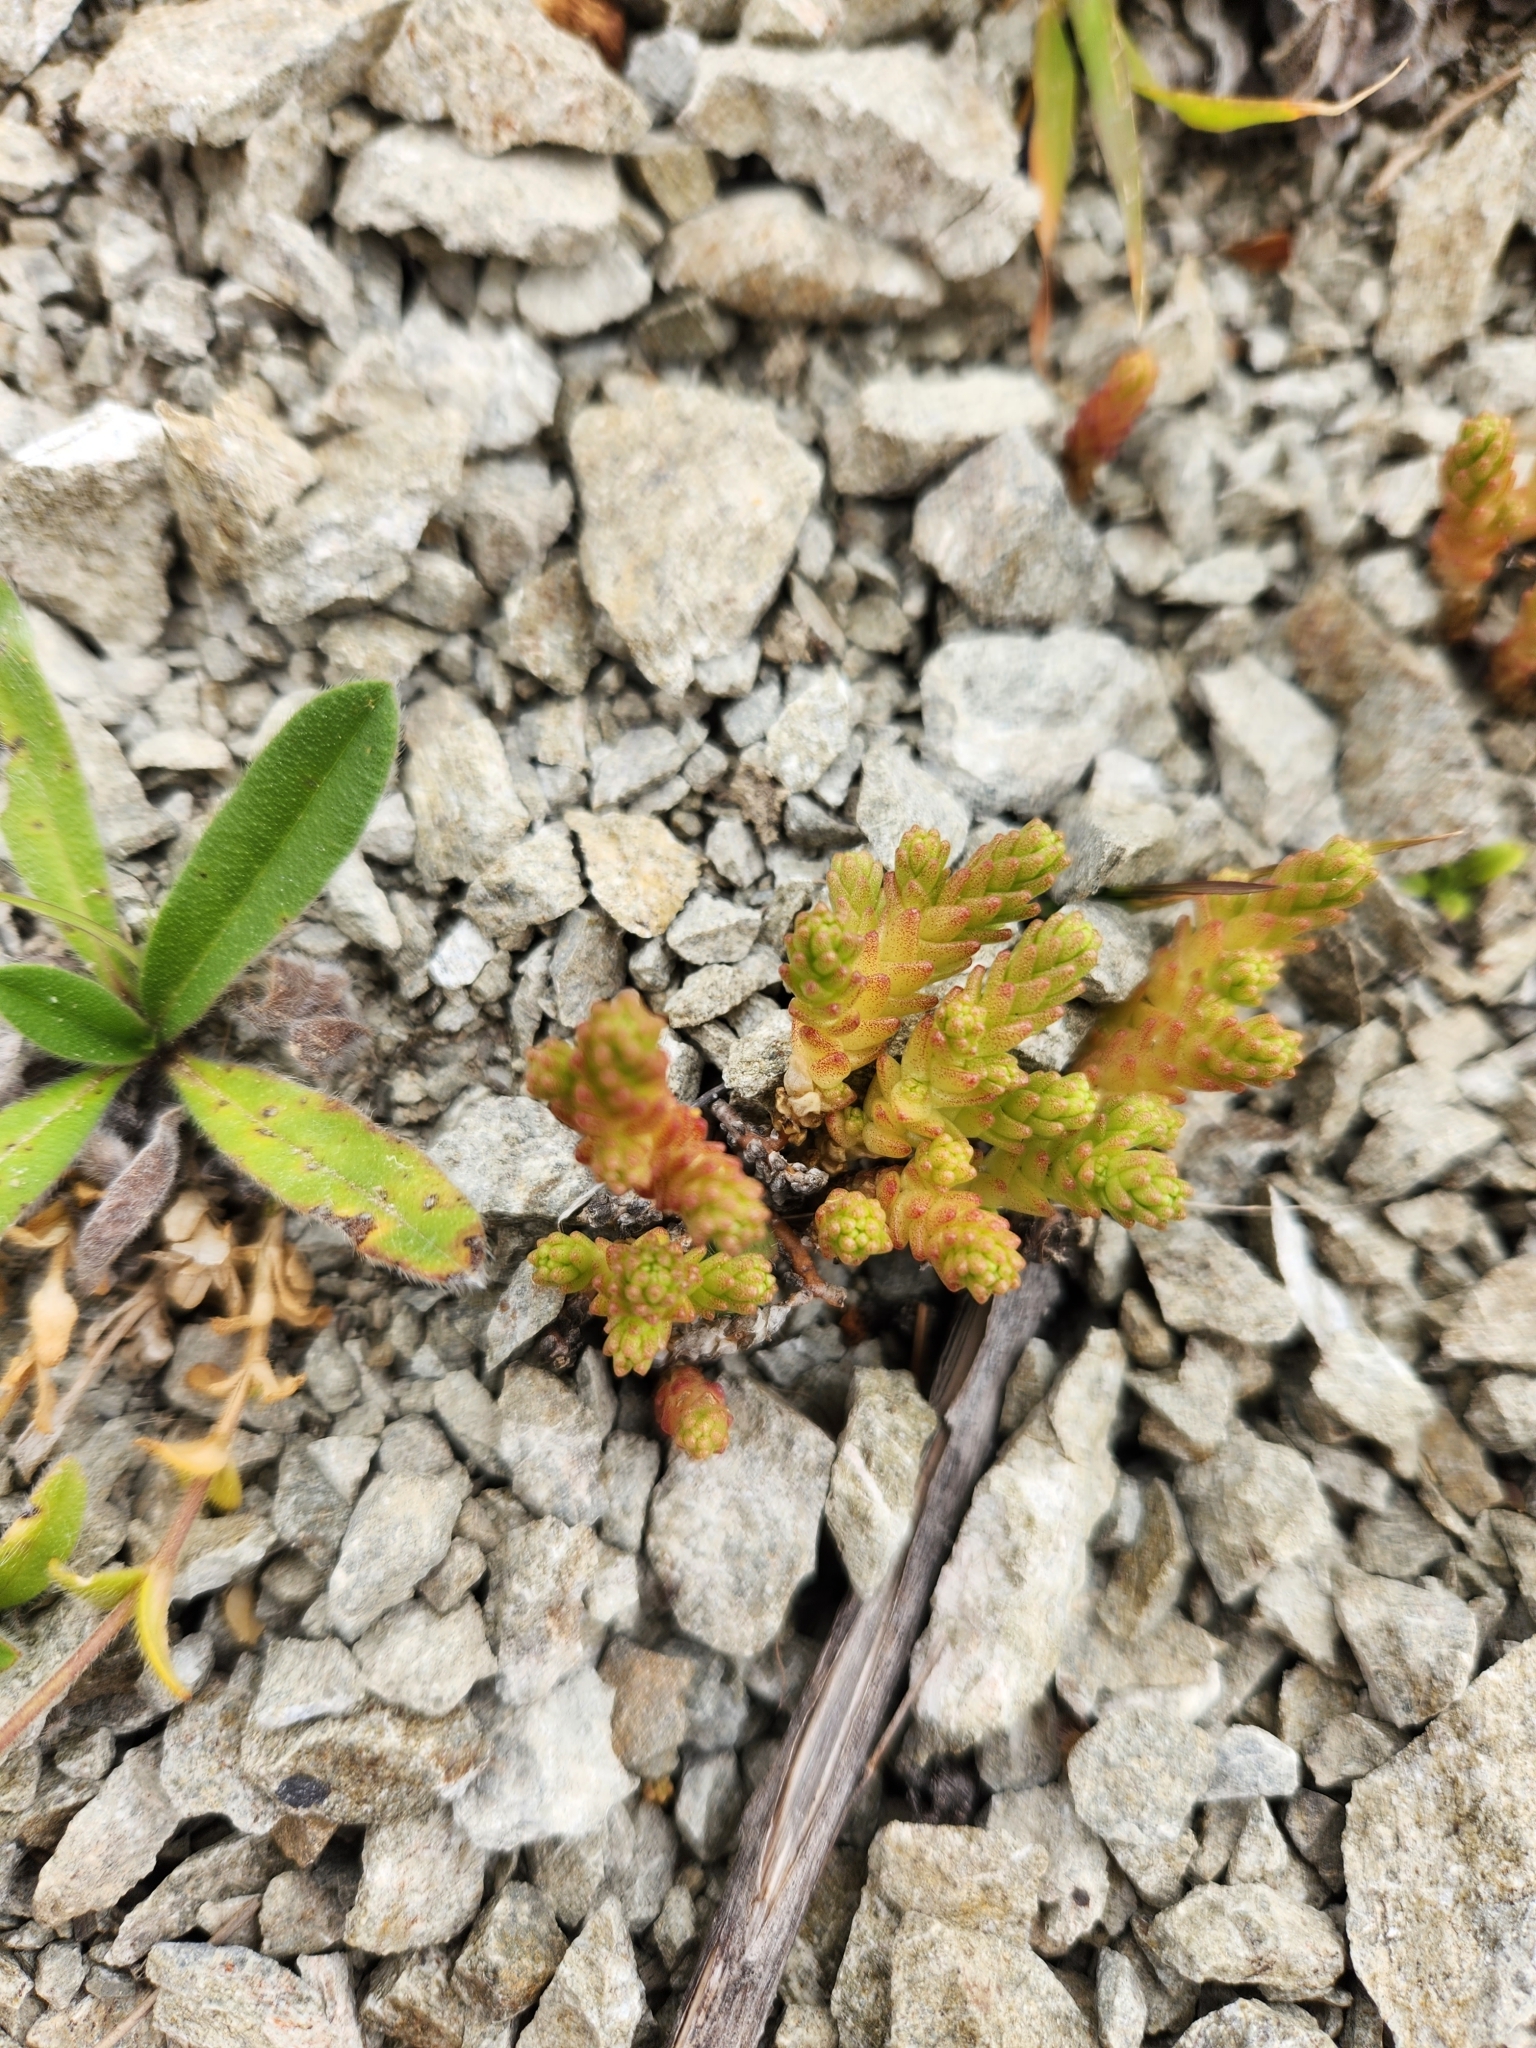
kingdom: Plantae
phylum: Tracheophyta
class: Magnoliopsida
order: Saxifragales
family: Crassulaceae
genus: Sedum
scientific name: Sedum acre
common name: Biting stonecrop
